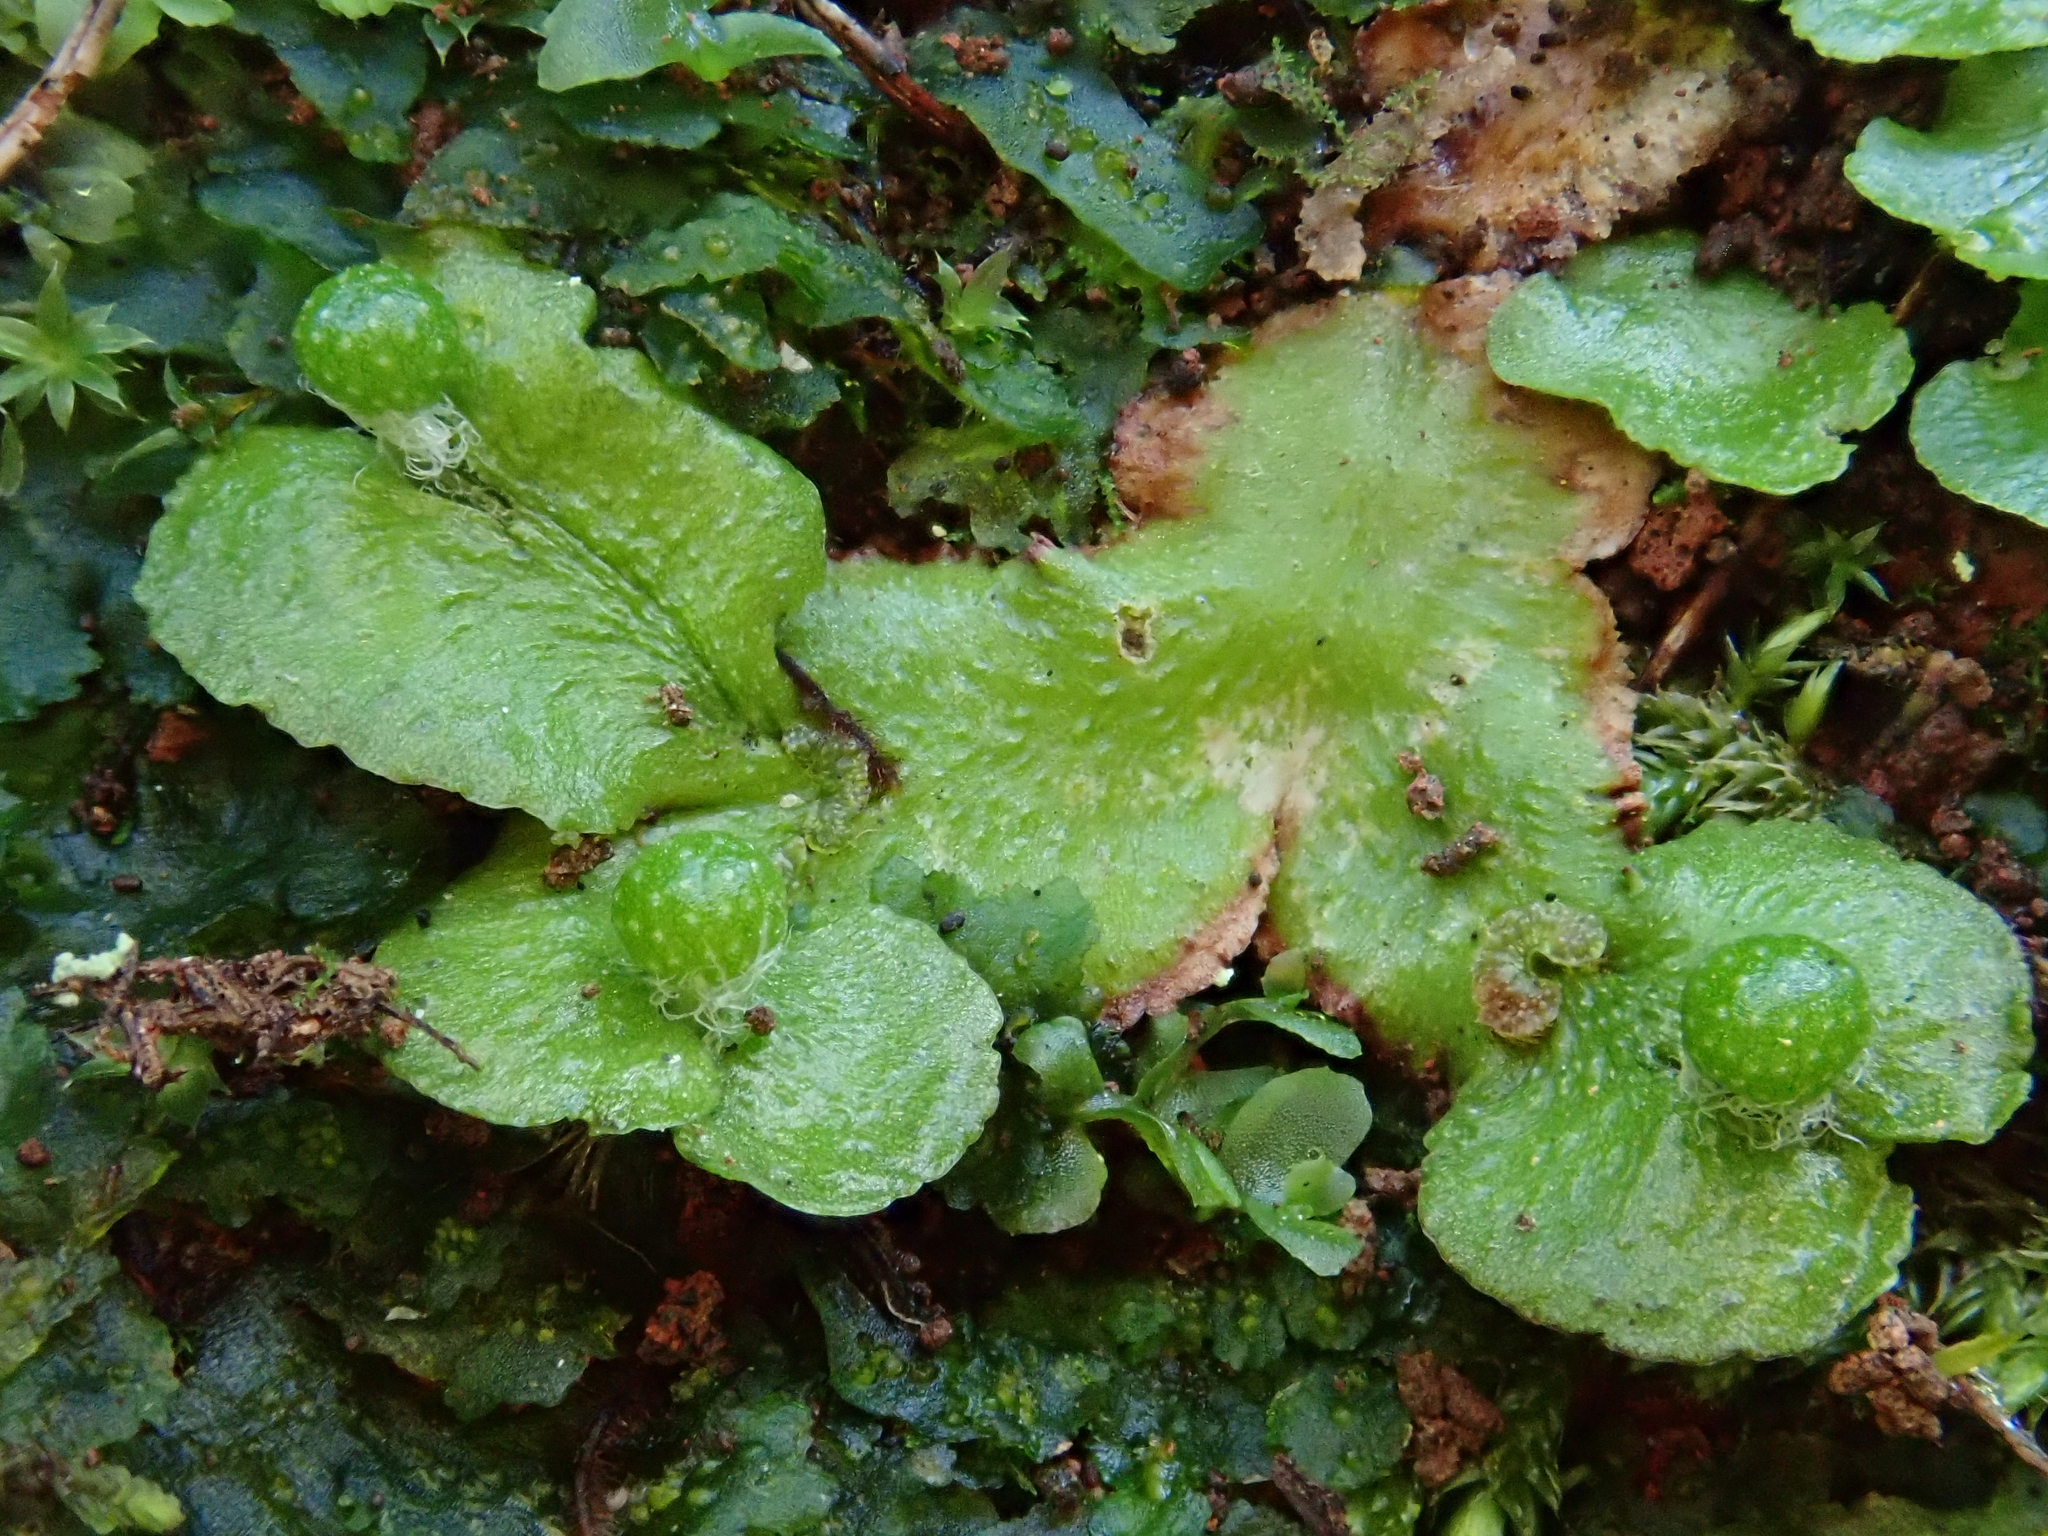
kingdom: Plantae
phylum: Marchantiophyta
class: Marchantiopsida
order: Marchantiales
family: Aytoniaceae
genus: Reboulia
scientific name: Reboulia hemisphaerica
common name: Purple-margined liverwort
